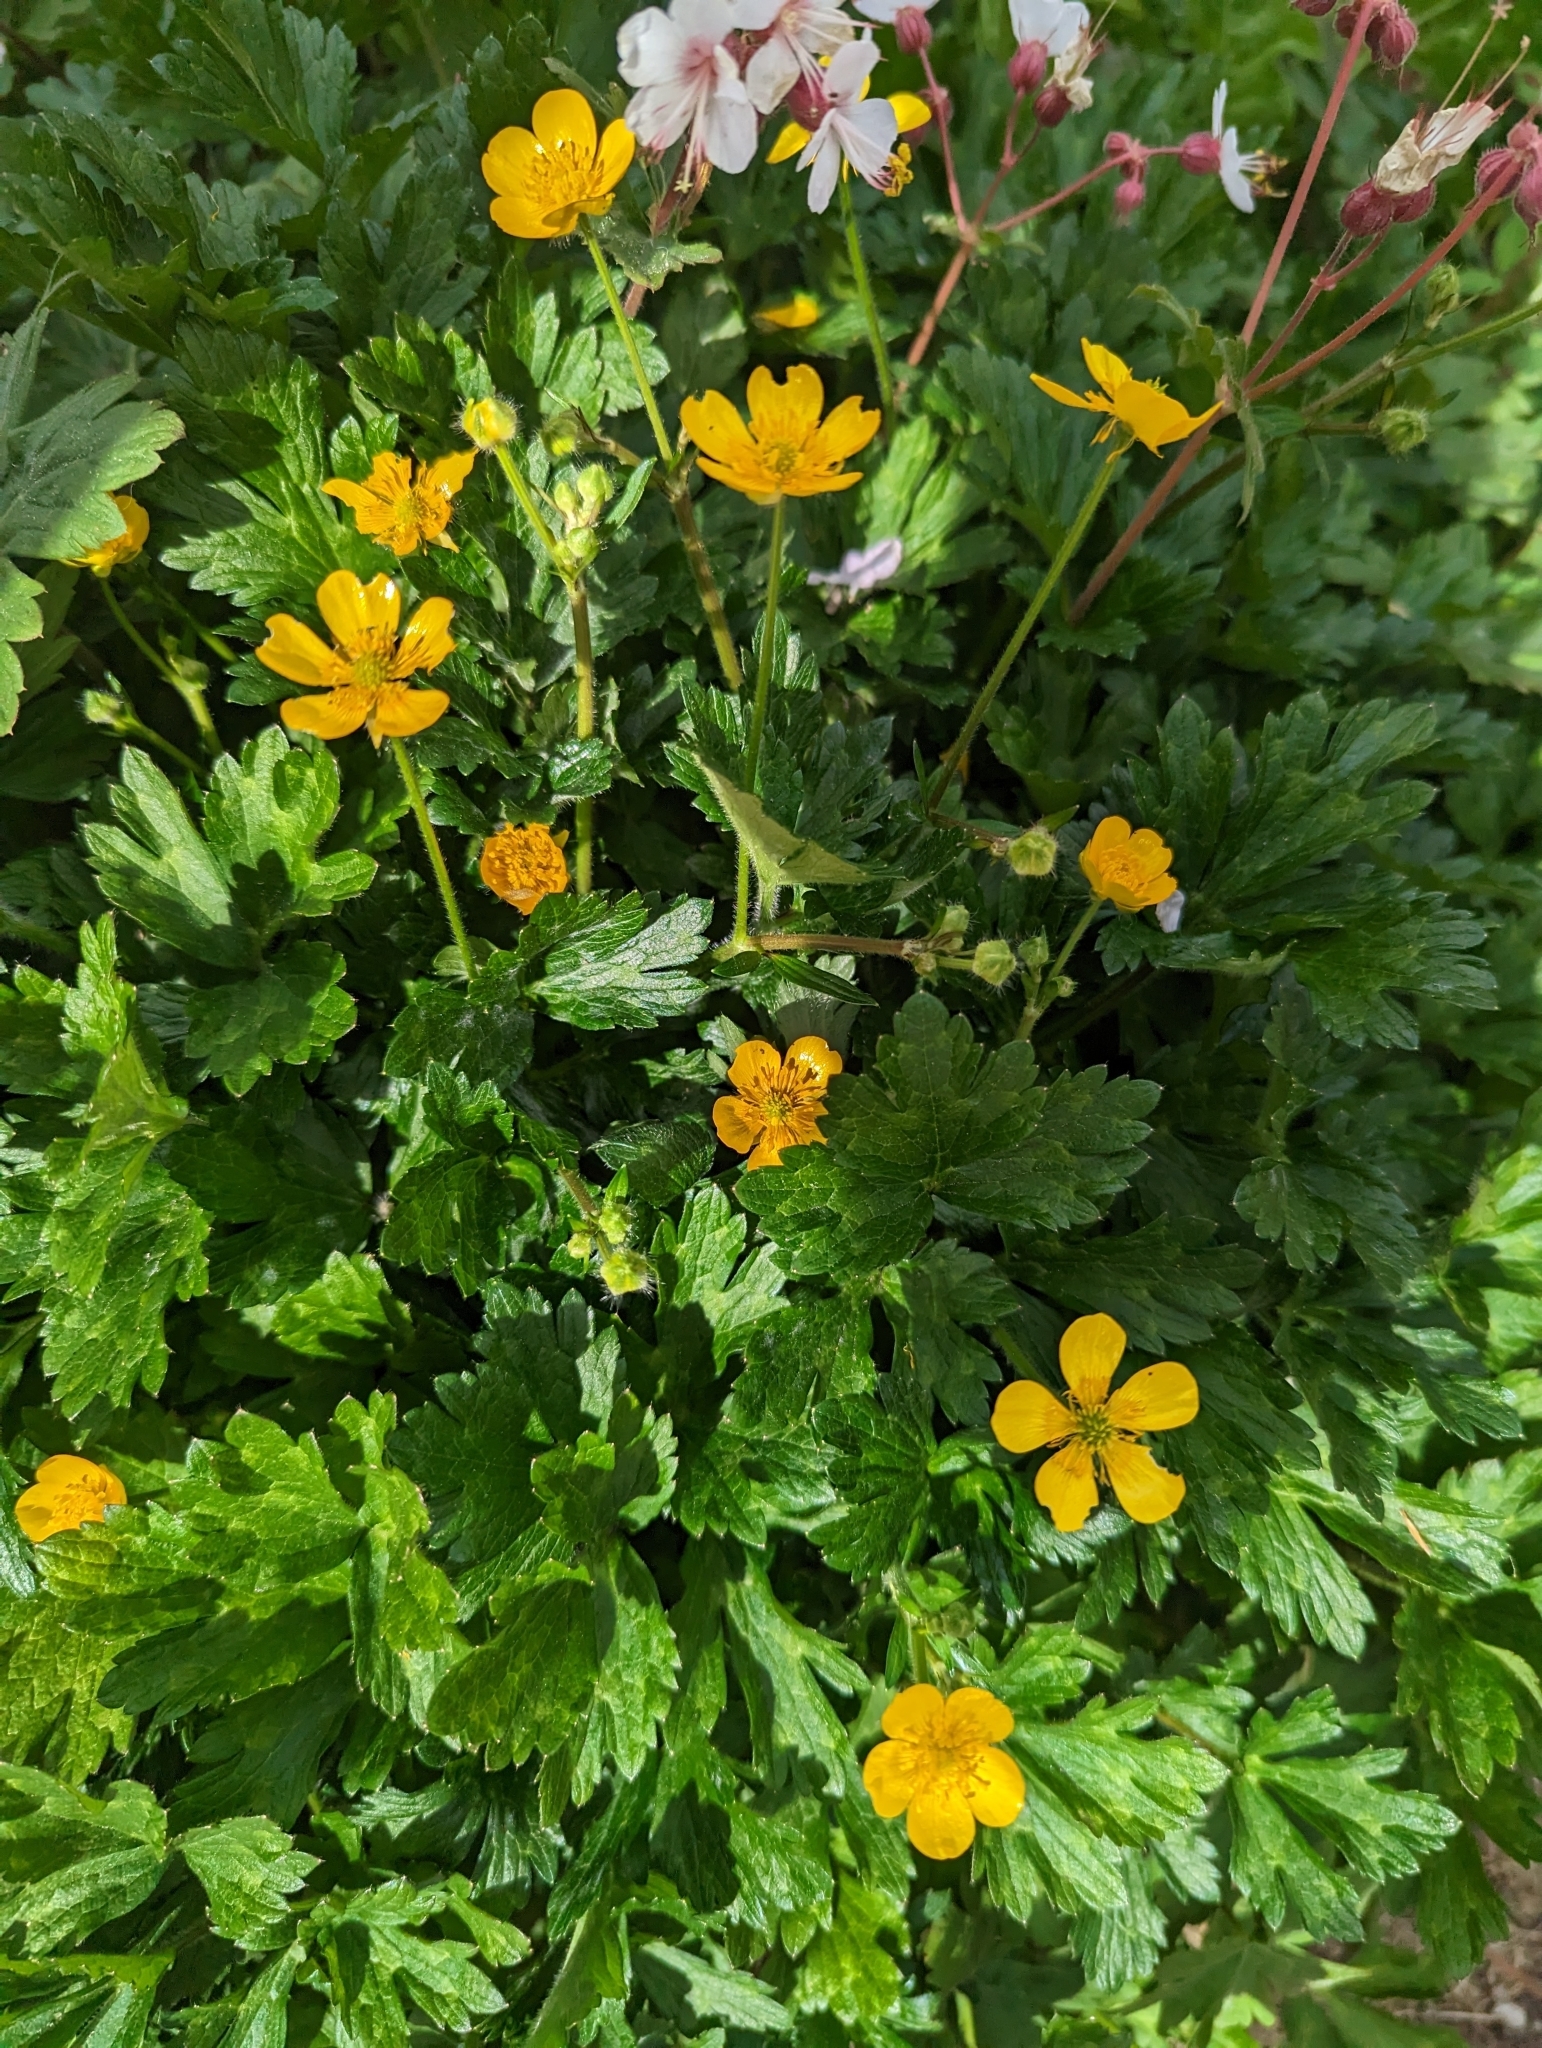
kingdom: Plantae
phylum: Tracheophyta
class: Magnoliopsida
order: Ranunculales
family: Ranunculaceae
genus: Ranunculus
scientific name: Ranunculus repens
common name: Creeping buttercup
